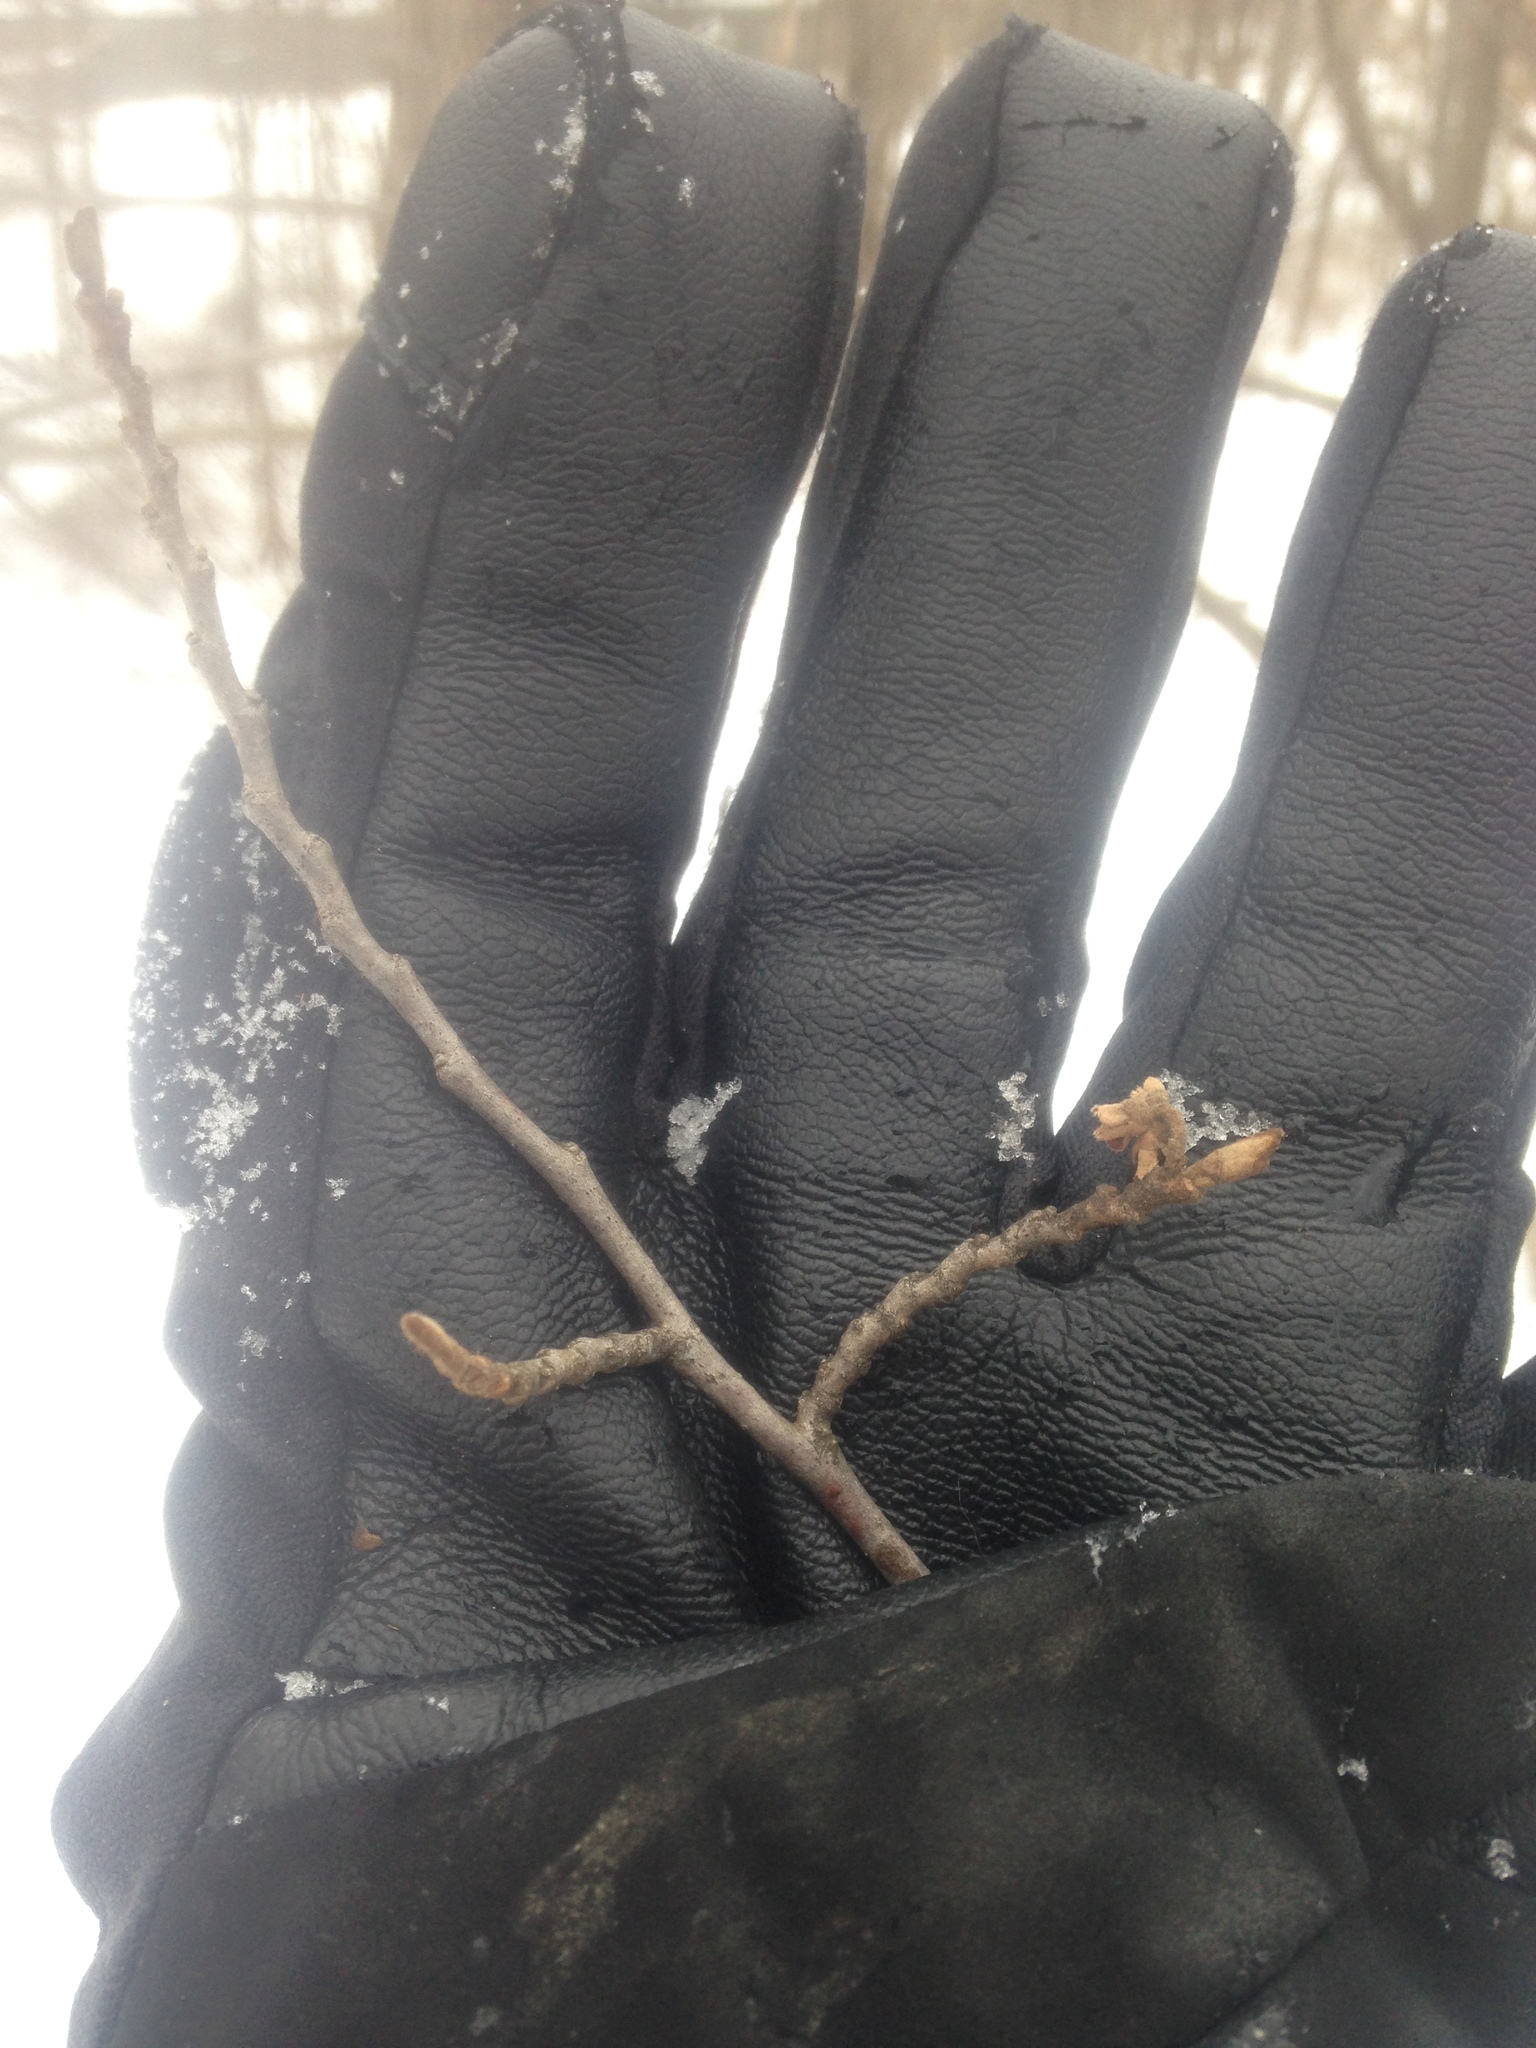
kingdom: Plantae
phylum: Tracheophyta
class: Magnoliopsida
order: Saxifragales
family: Hamamelidaceae
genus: Hamamelis
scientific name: Hamamelis virginiana
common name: Witch-hazel
